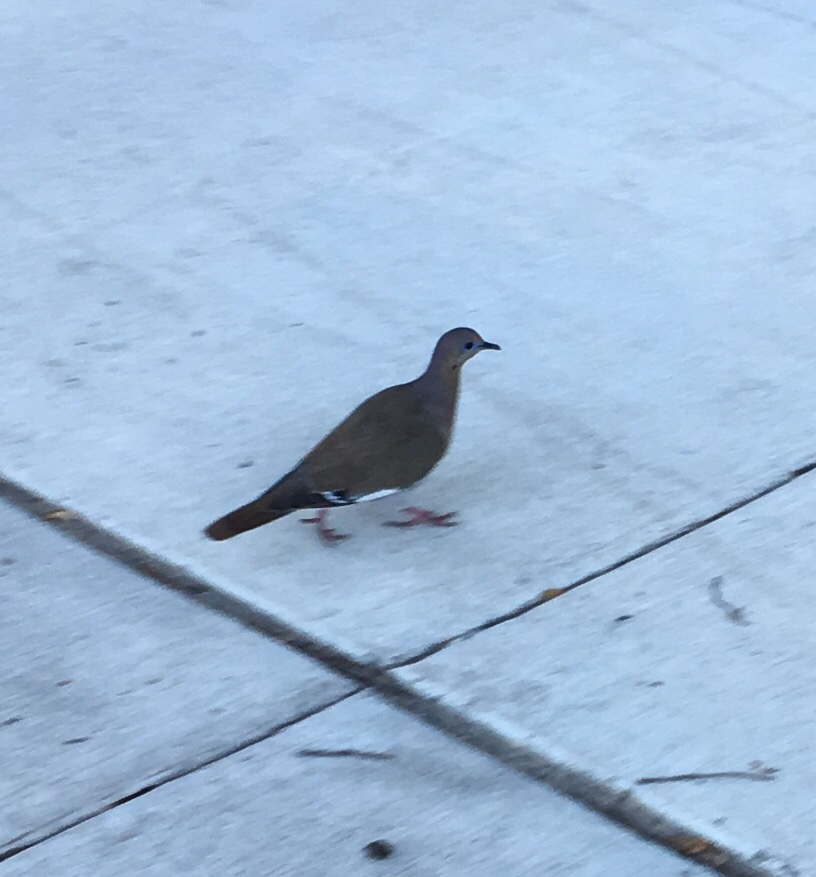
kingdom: Animalia
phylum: Chordata
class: Aves
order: Columbiformes
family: Columbidae
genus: Zenaida
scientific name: Zenaida asiatica
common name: White-winged dove
